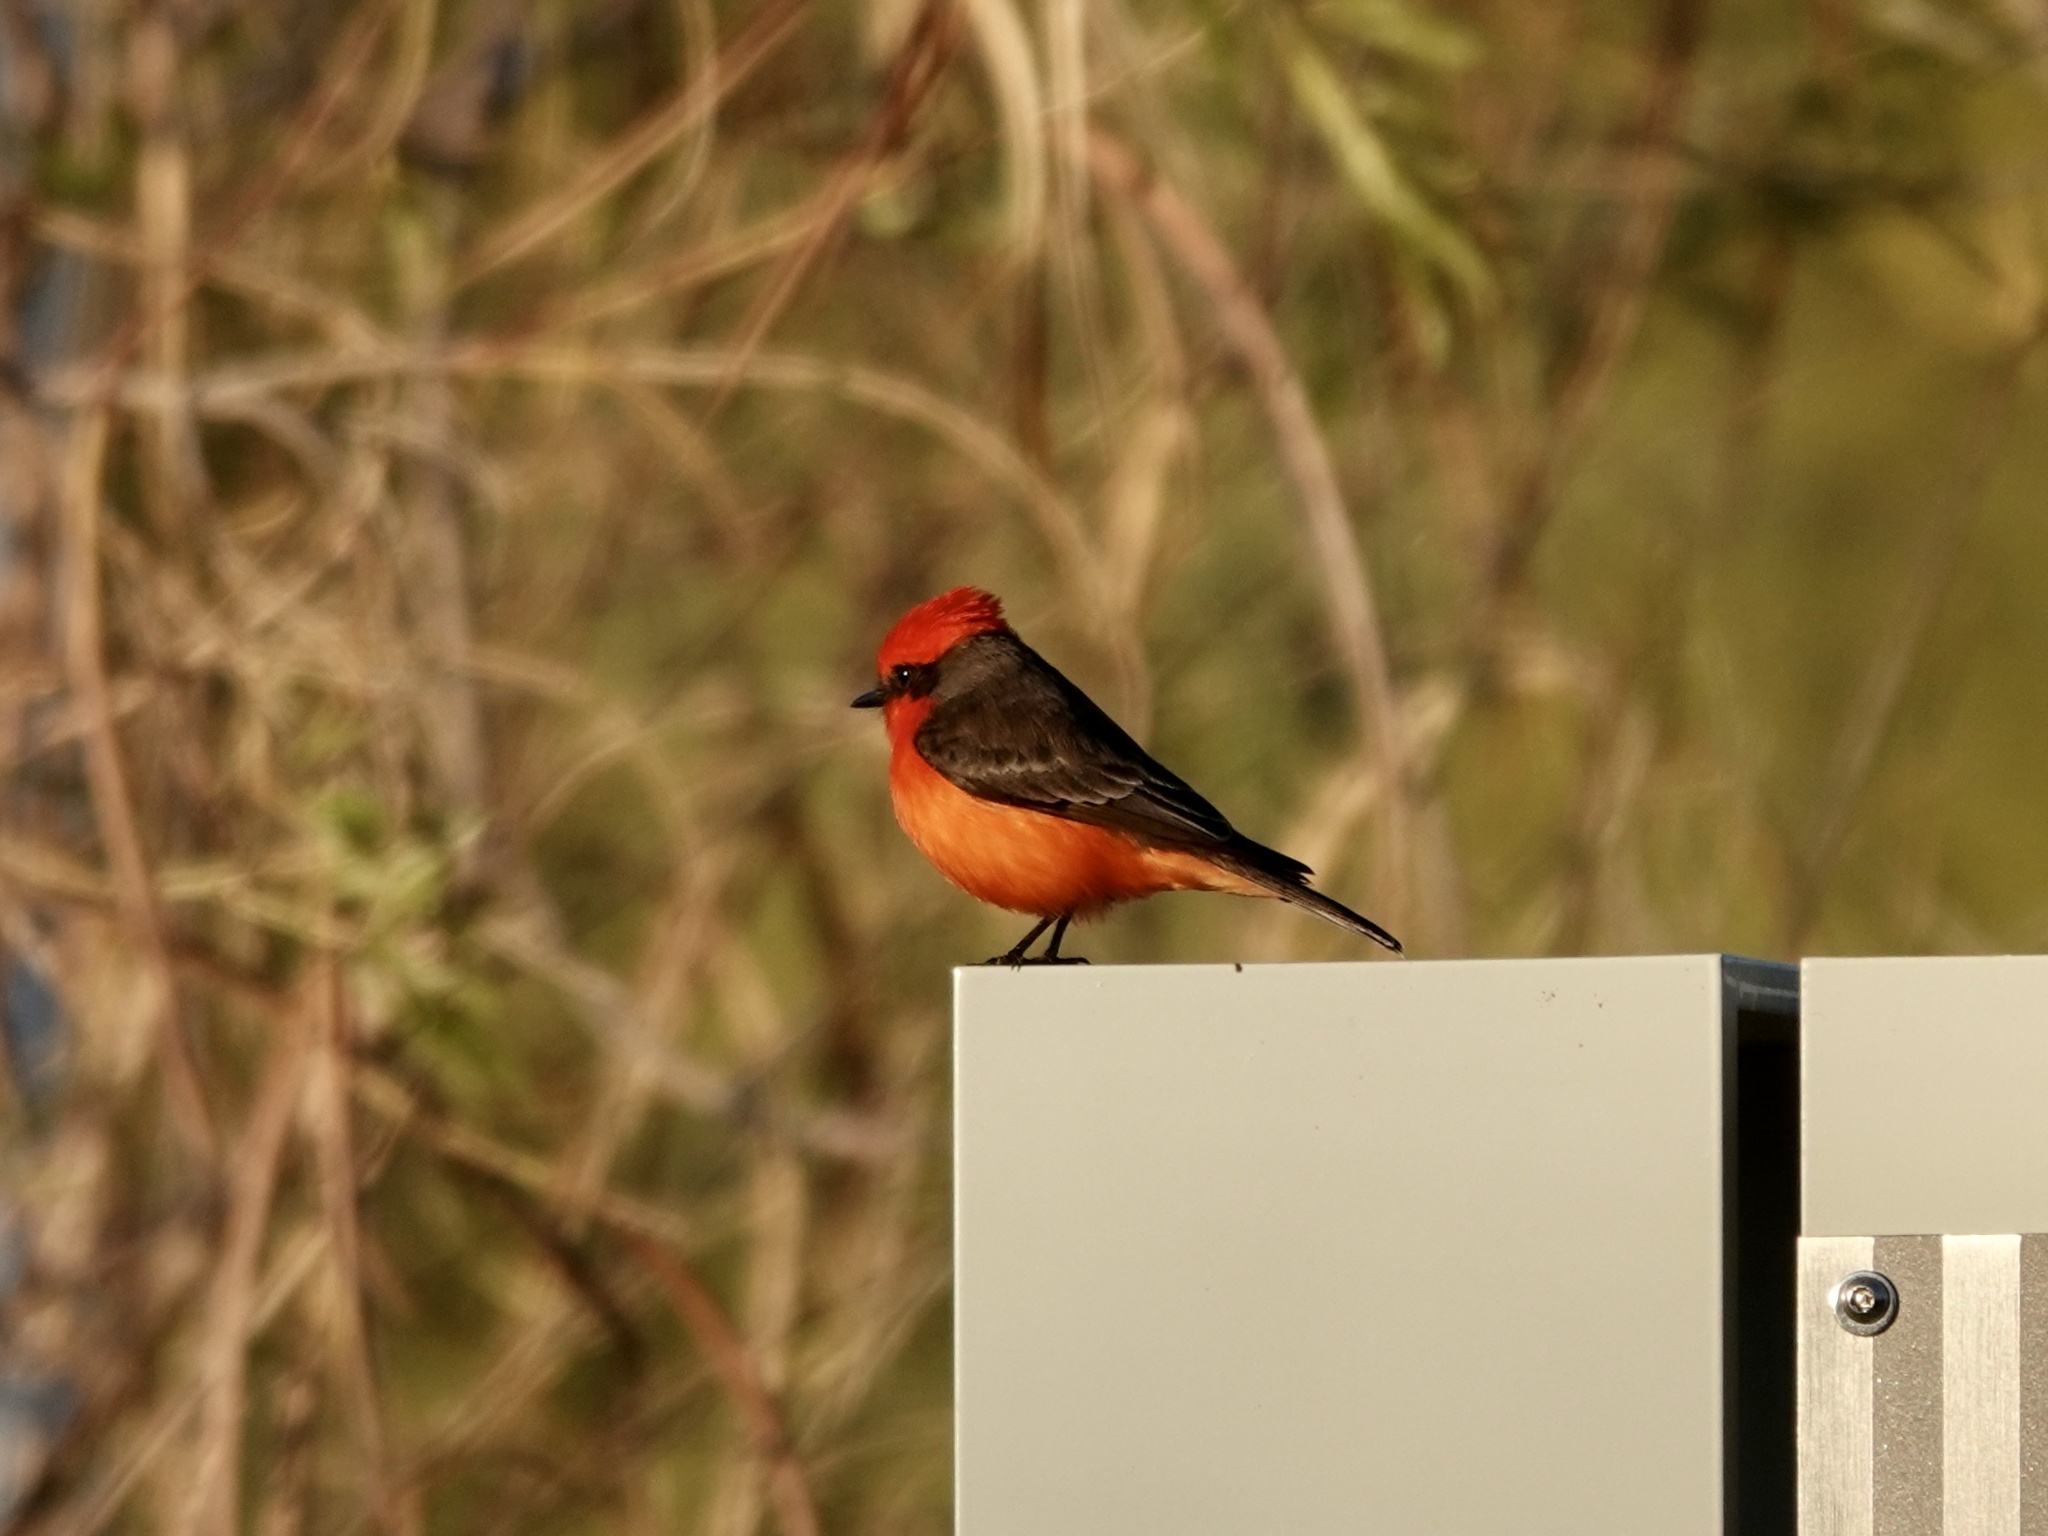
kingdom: Animalia
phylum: Chordata
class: Aves
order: Passeriformes
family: Tyrannidae
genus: Pyrocephalus
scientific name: Pyrocephalus rubinus
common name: Vermilion flycatcher
